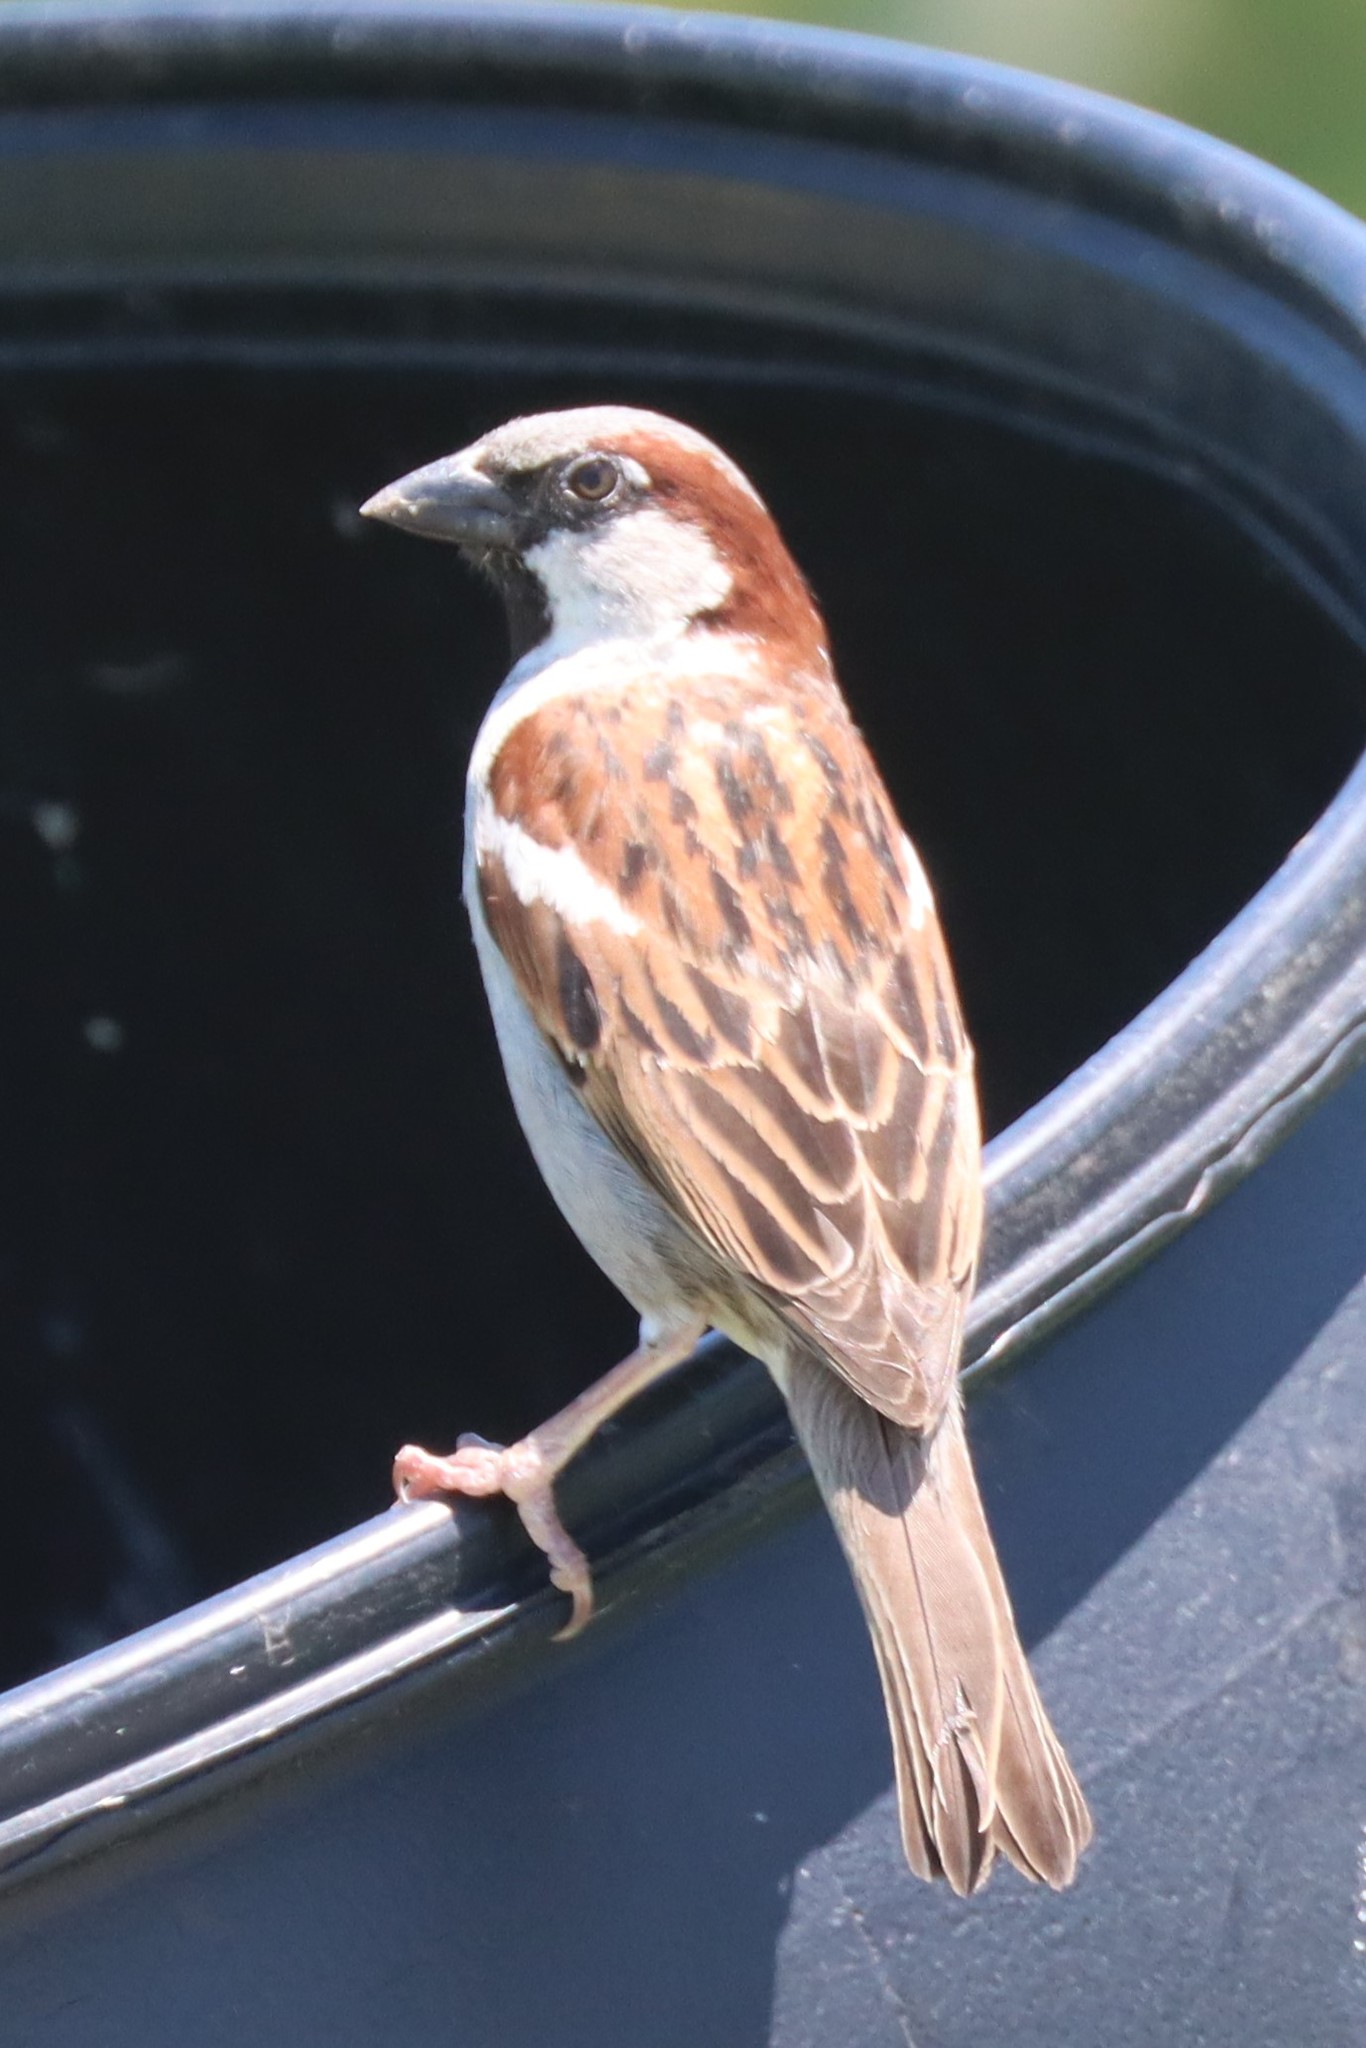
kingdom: Animalia
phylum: Chordata
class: Aves
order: Passeriformes
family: Passeridae
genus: Passer
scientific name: Passer domesticus
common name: House sparrow
